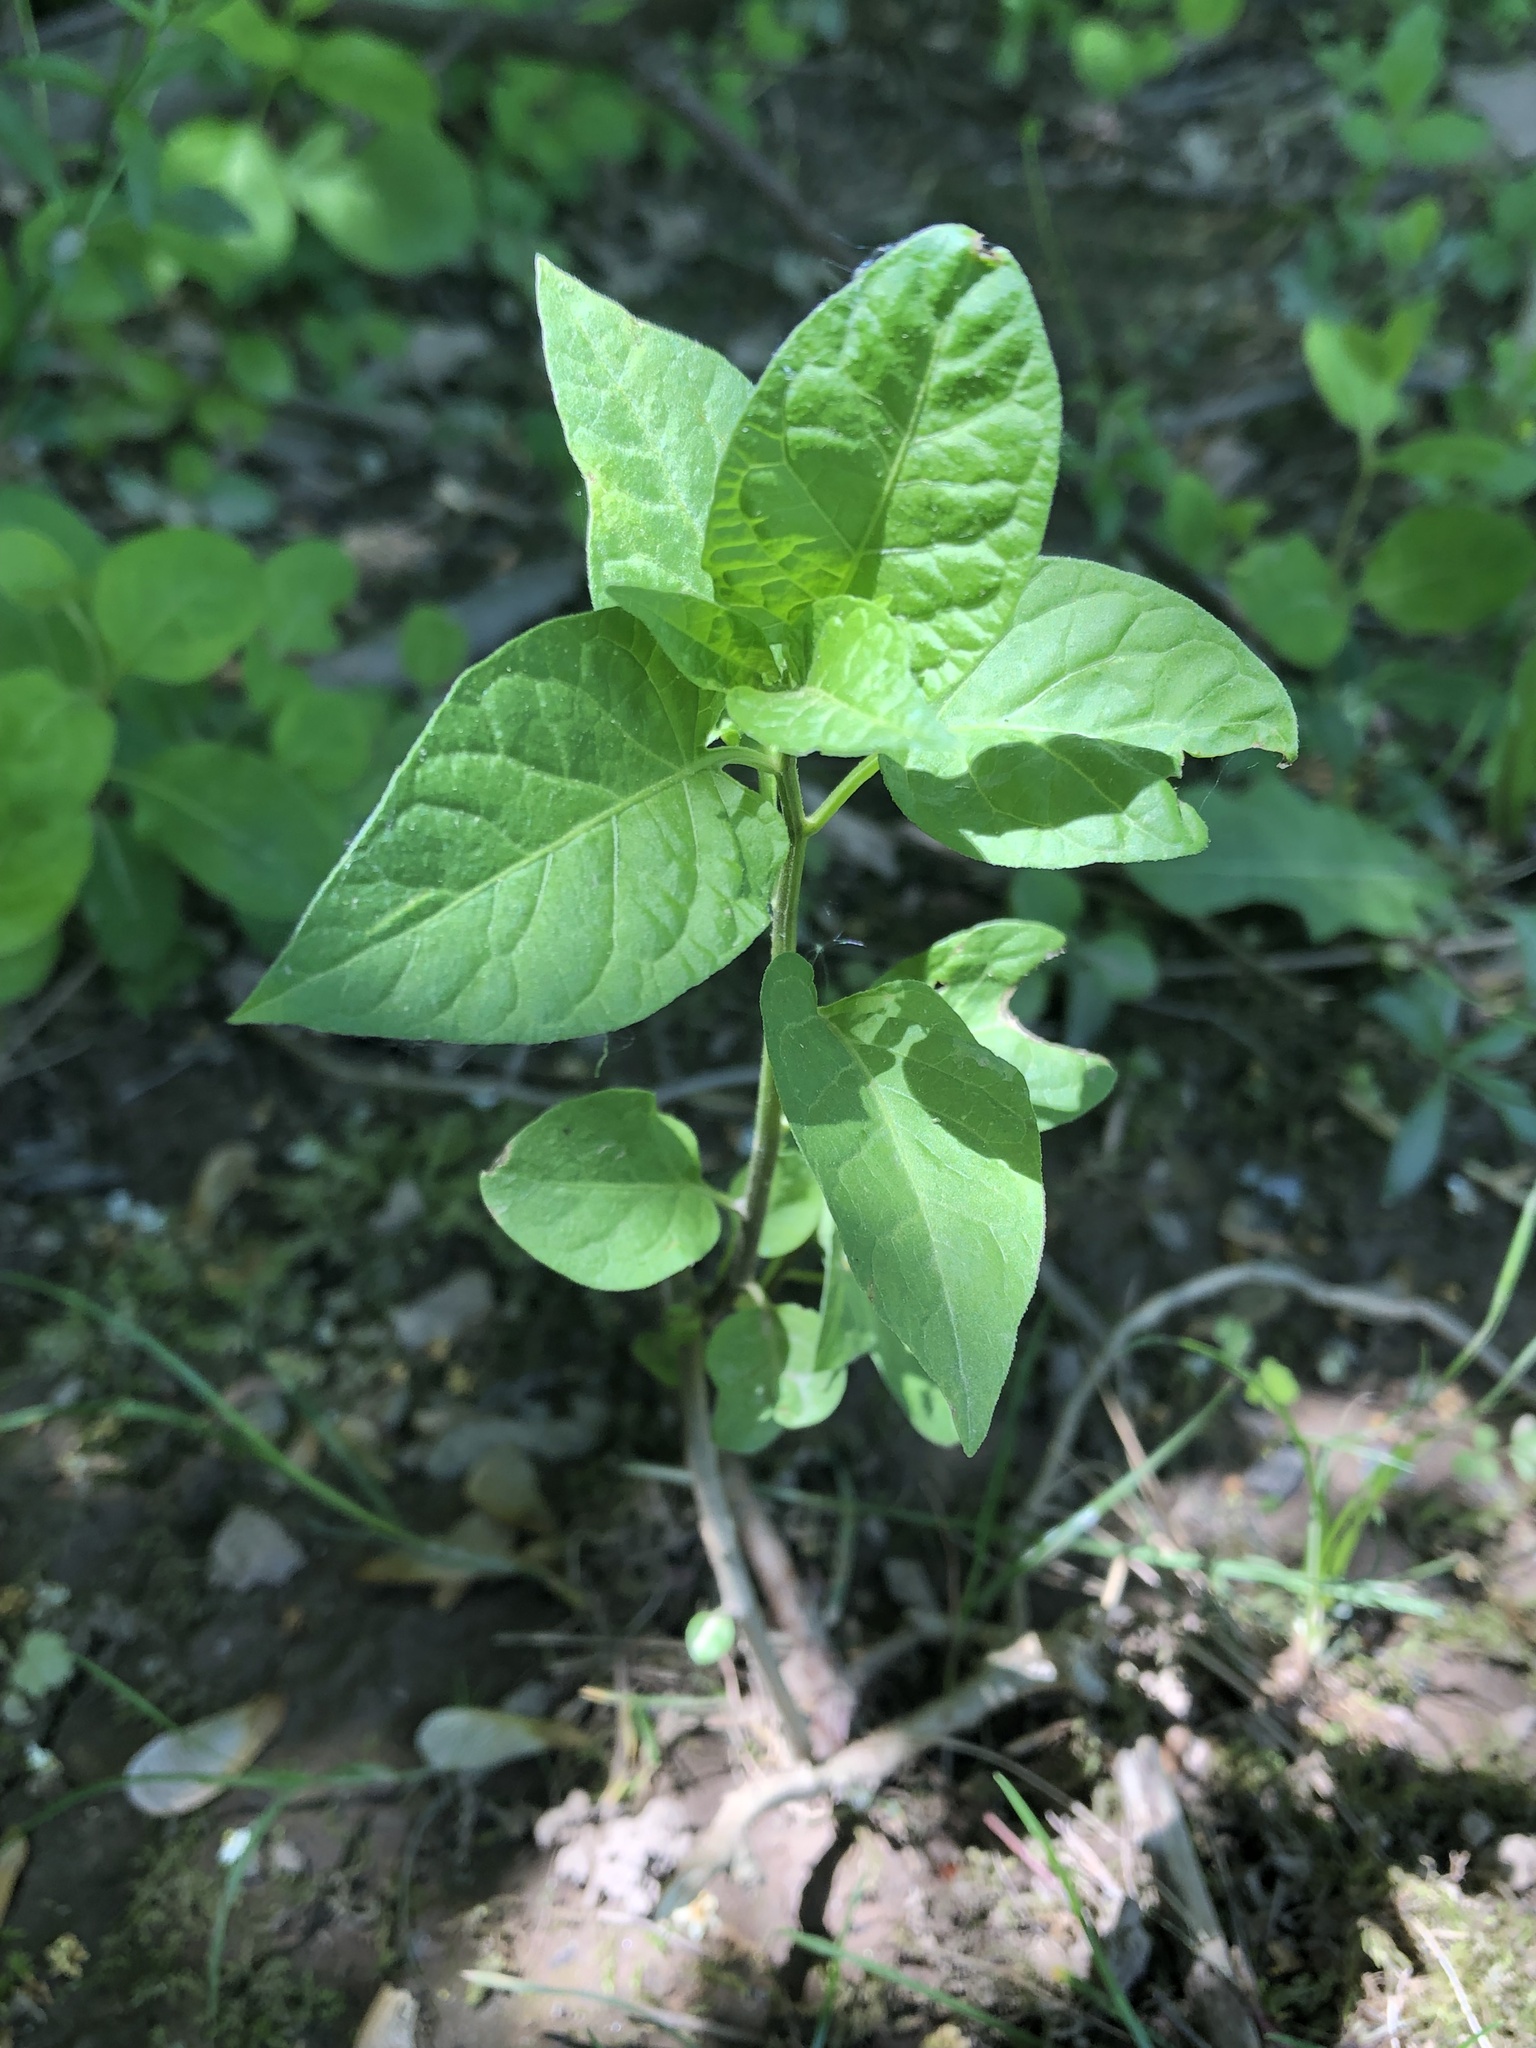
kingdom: Plantae
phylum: Tracheophyta
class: Magnoliopsida
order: Solanales
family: Solanaceae
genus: Solanum
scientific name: Solanum dulcamara
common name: Climbing nightshade
